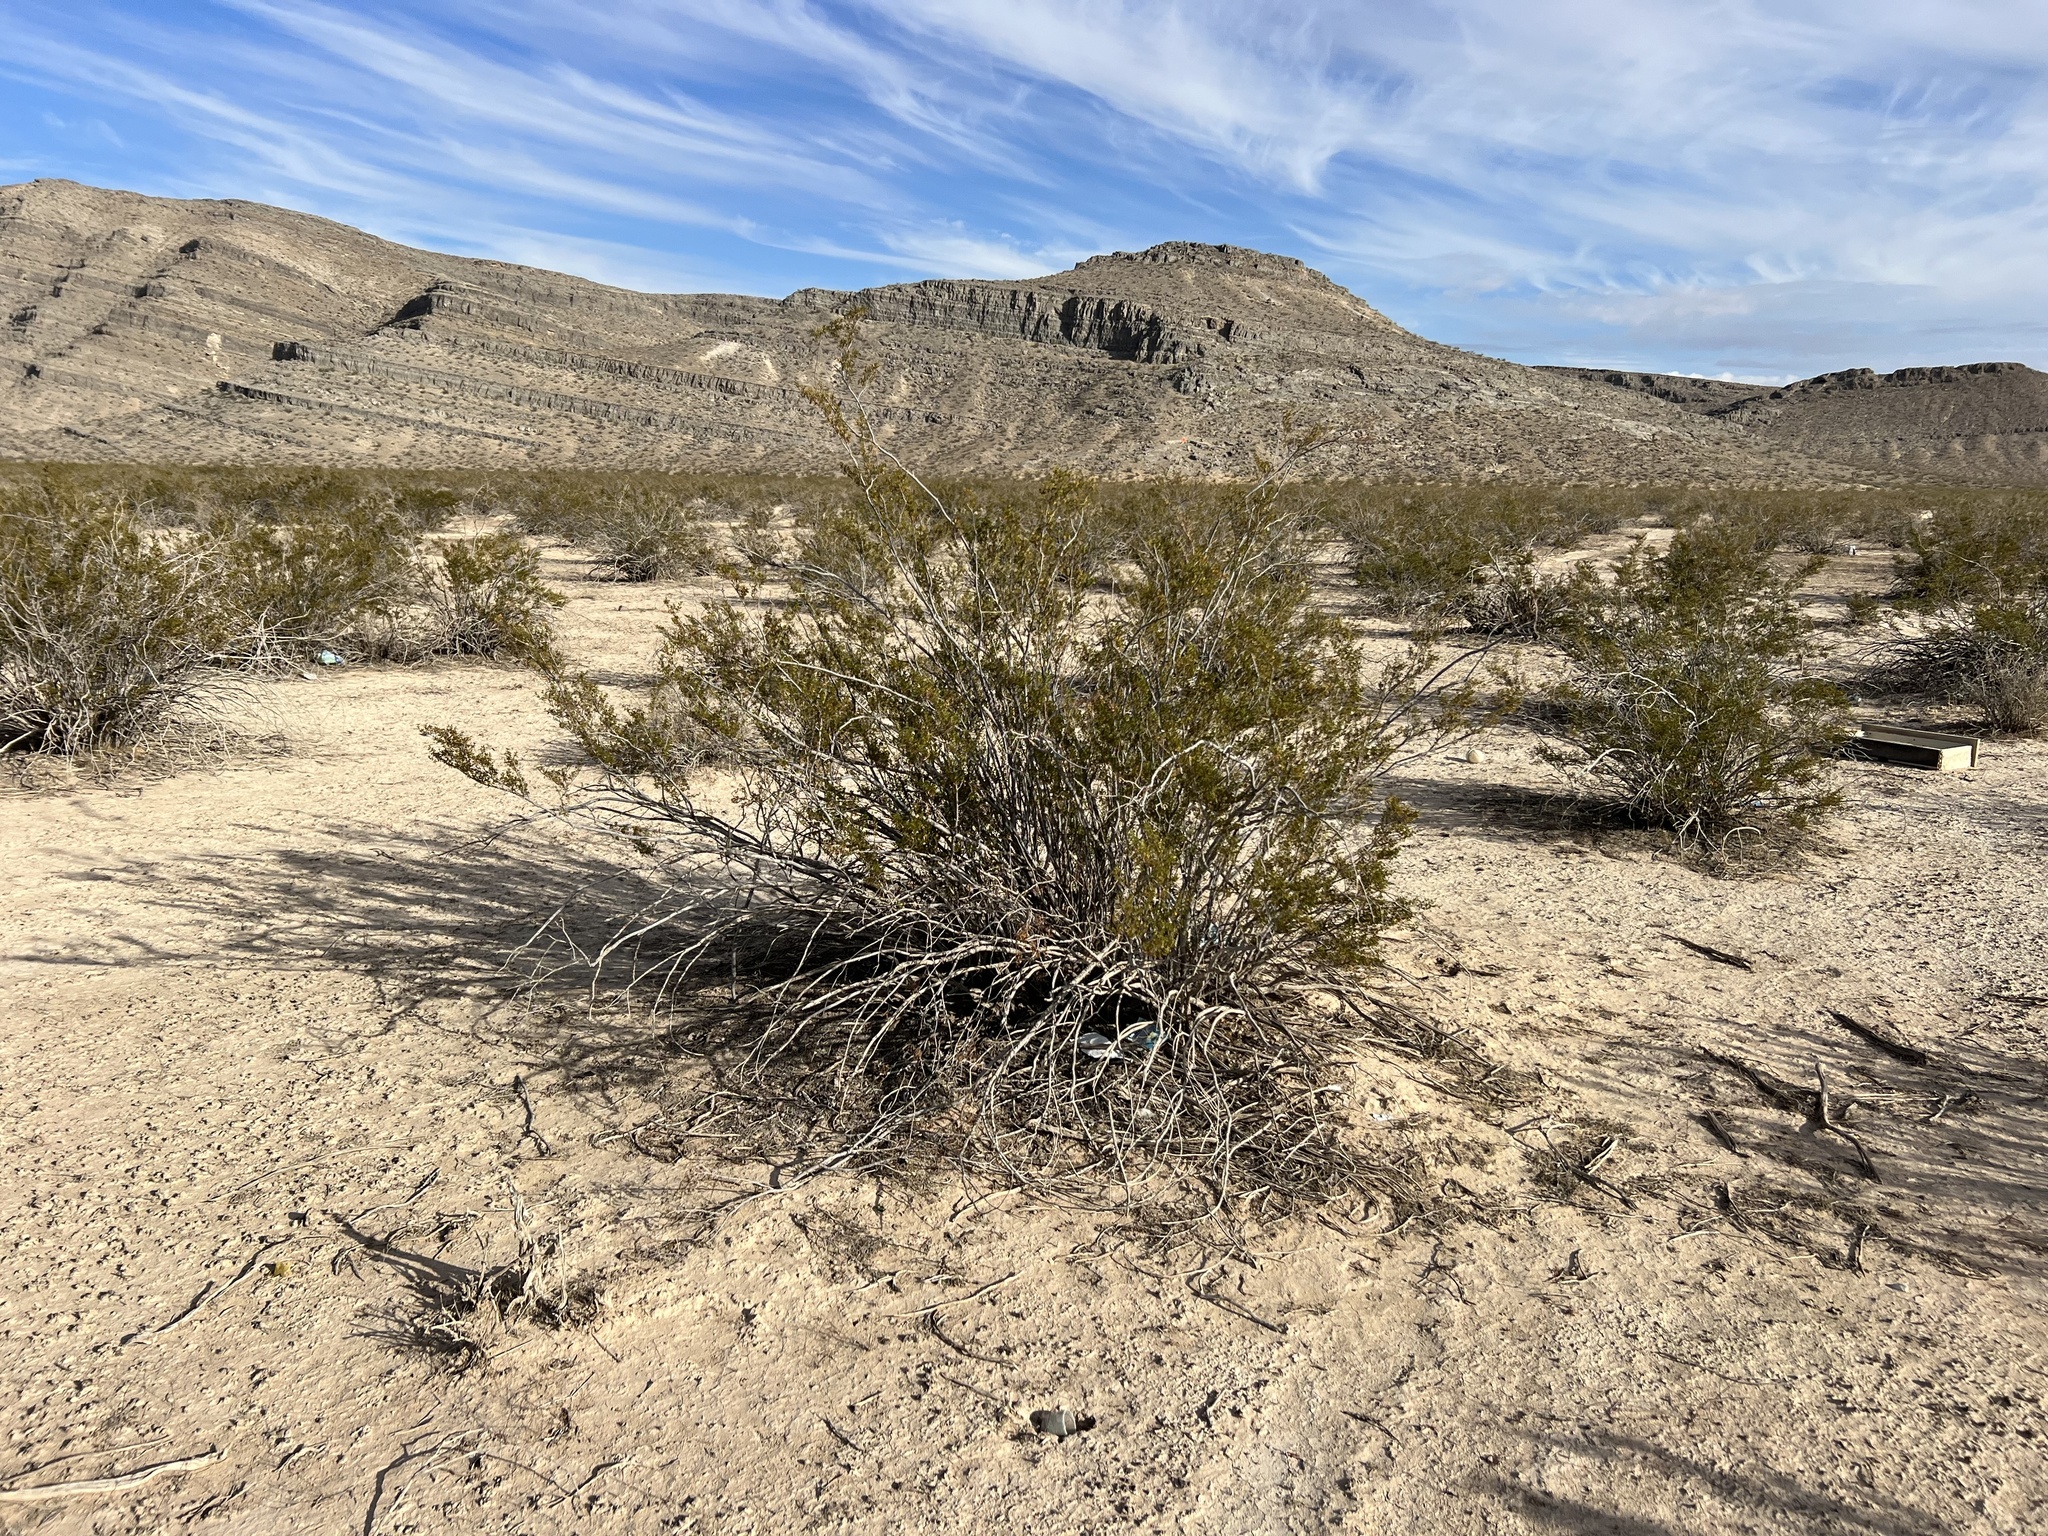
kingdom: Plantae
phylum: Tracheophyta
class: Magnoliopsida
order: Zygophyllales
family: Zygophyllaceae
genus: Larrea
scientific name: Larrea tridentata
